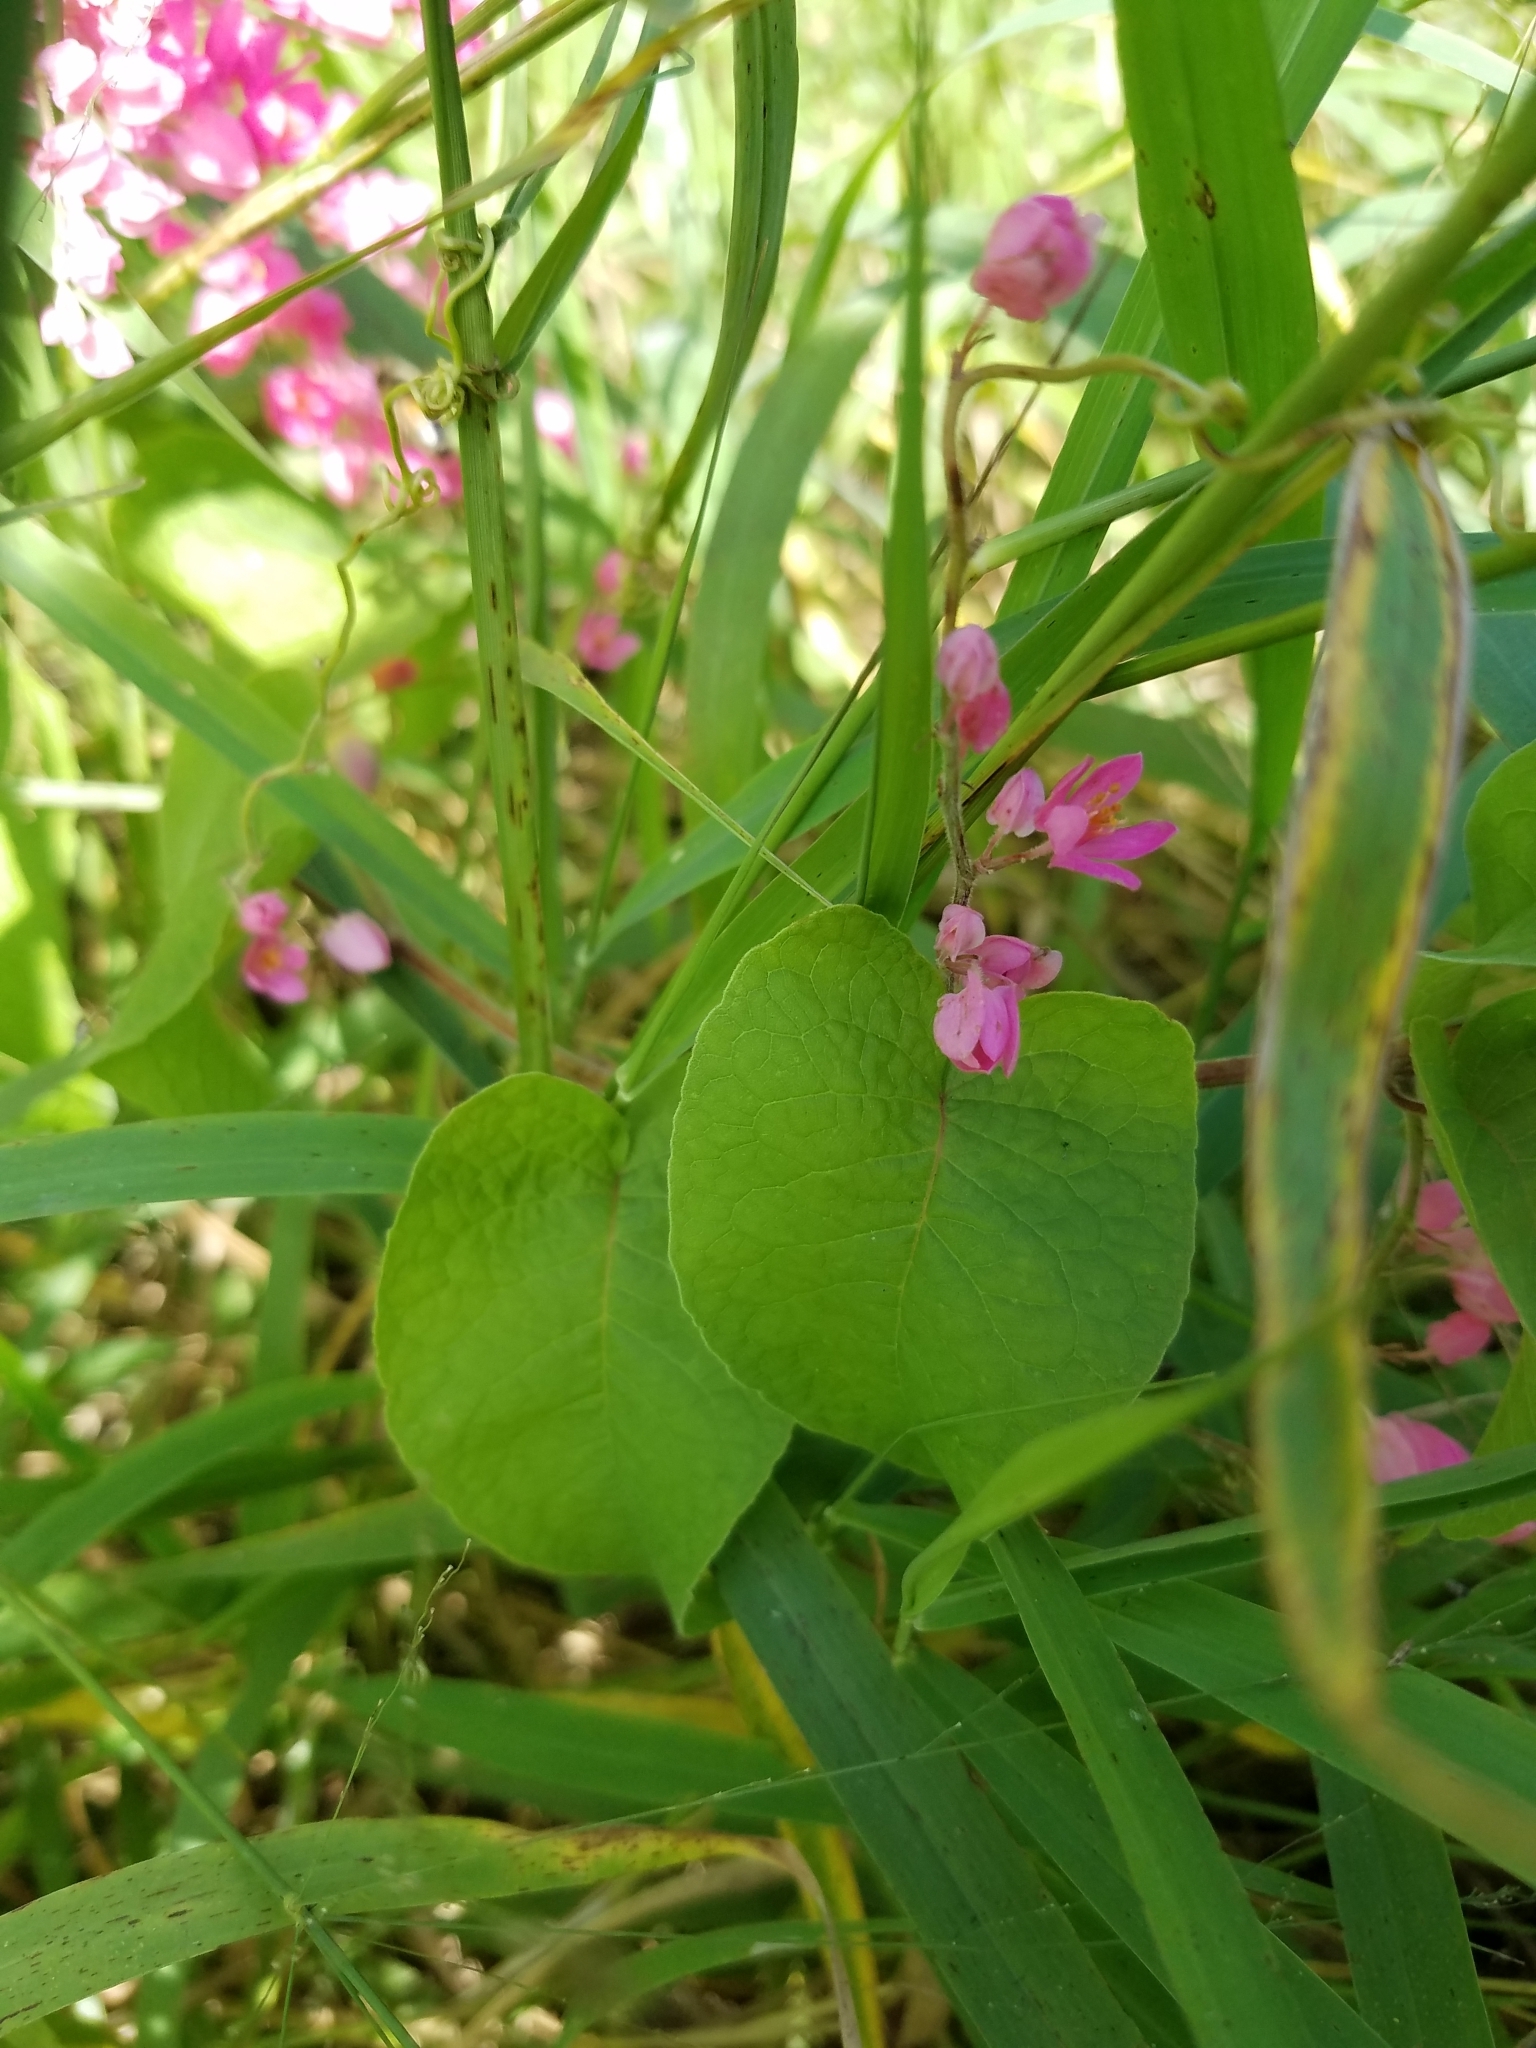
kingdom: Plantae
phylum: Tracheophyta
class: Magnoliopsida
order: Caryophyllales
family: Polygonaceae
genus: Antigonon
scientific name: Antigonon leptopus
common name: Coral vine
